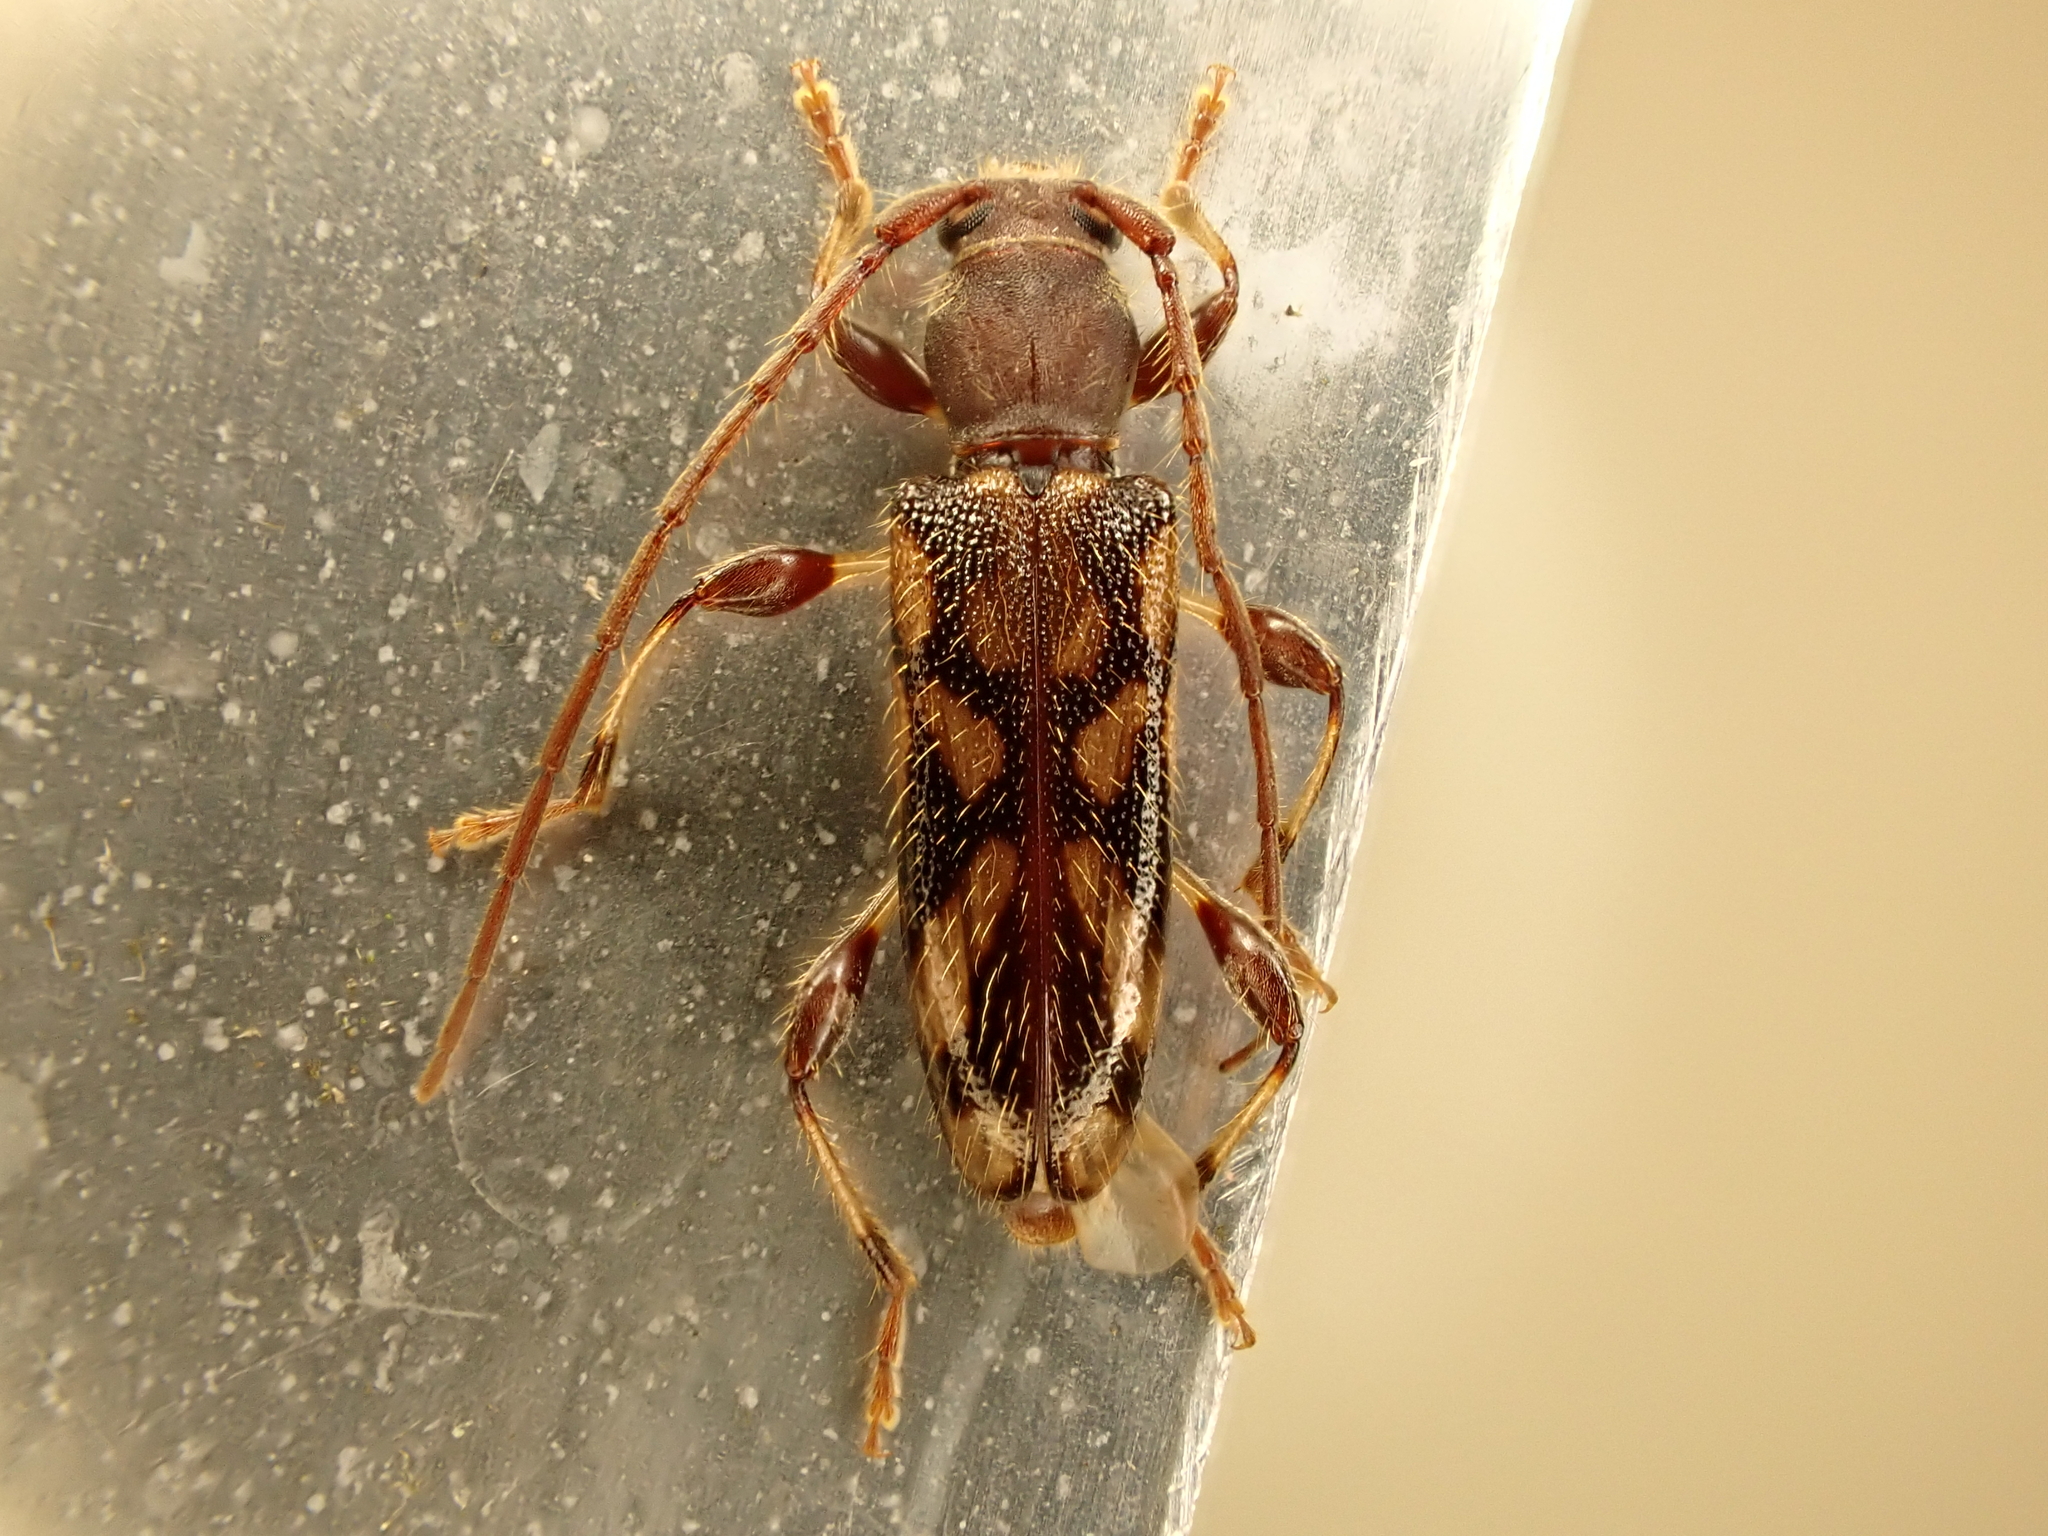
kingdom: Animalia
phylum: Arthropoda
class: Insecta
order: Coleoptera
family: Cerambycidae
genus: Bethelium
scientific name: Bethelium signiferum
